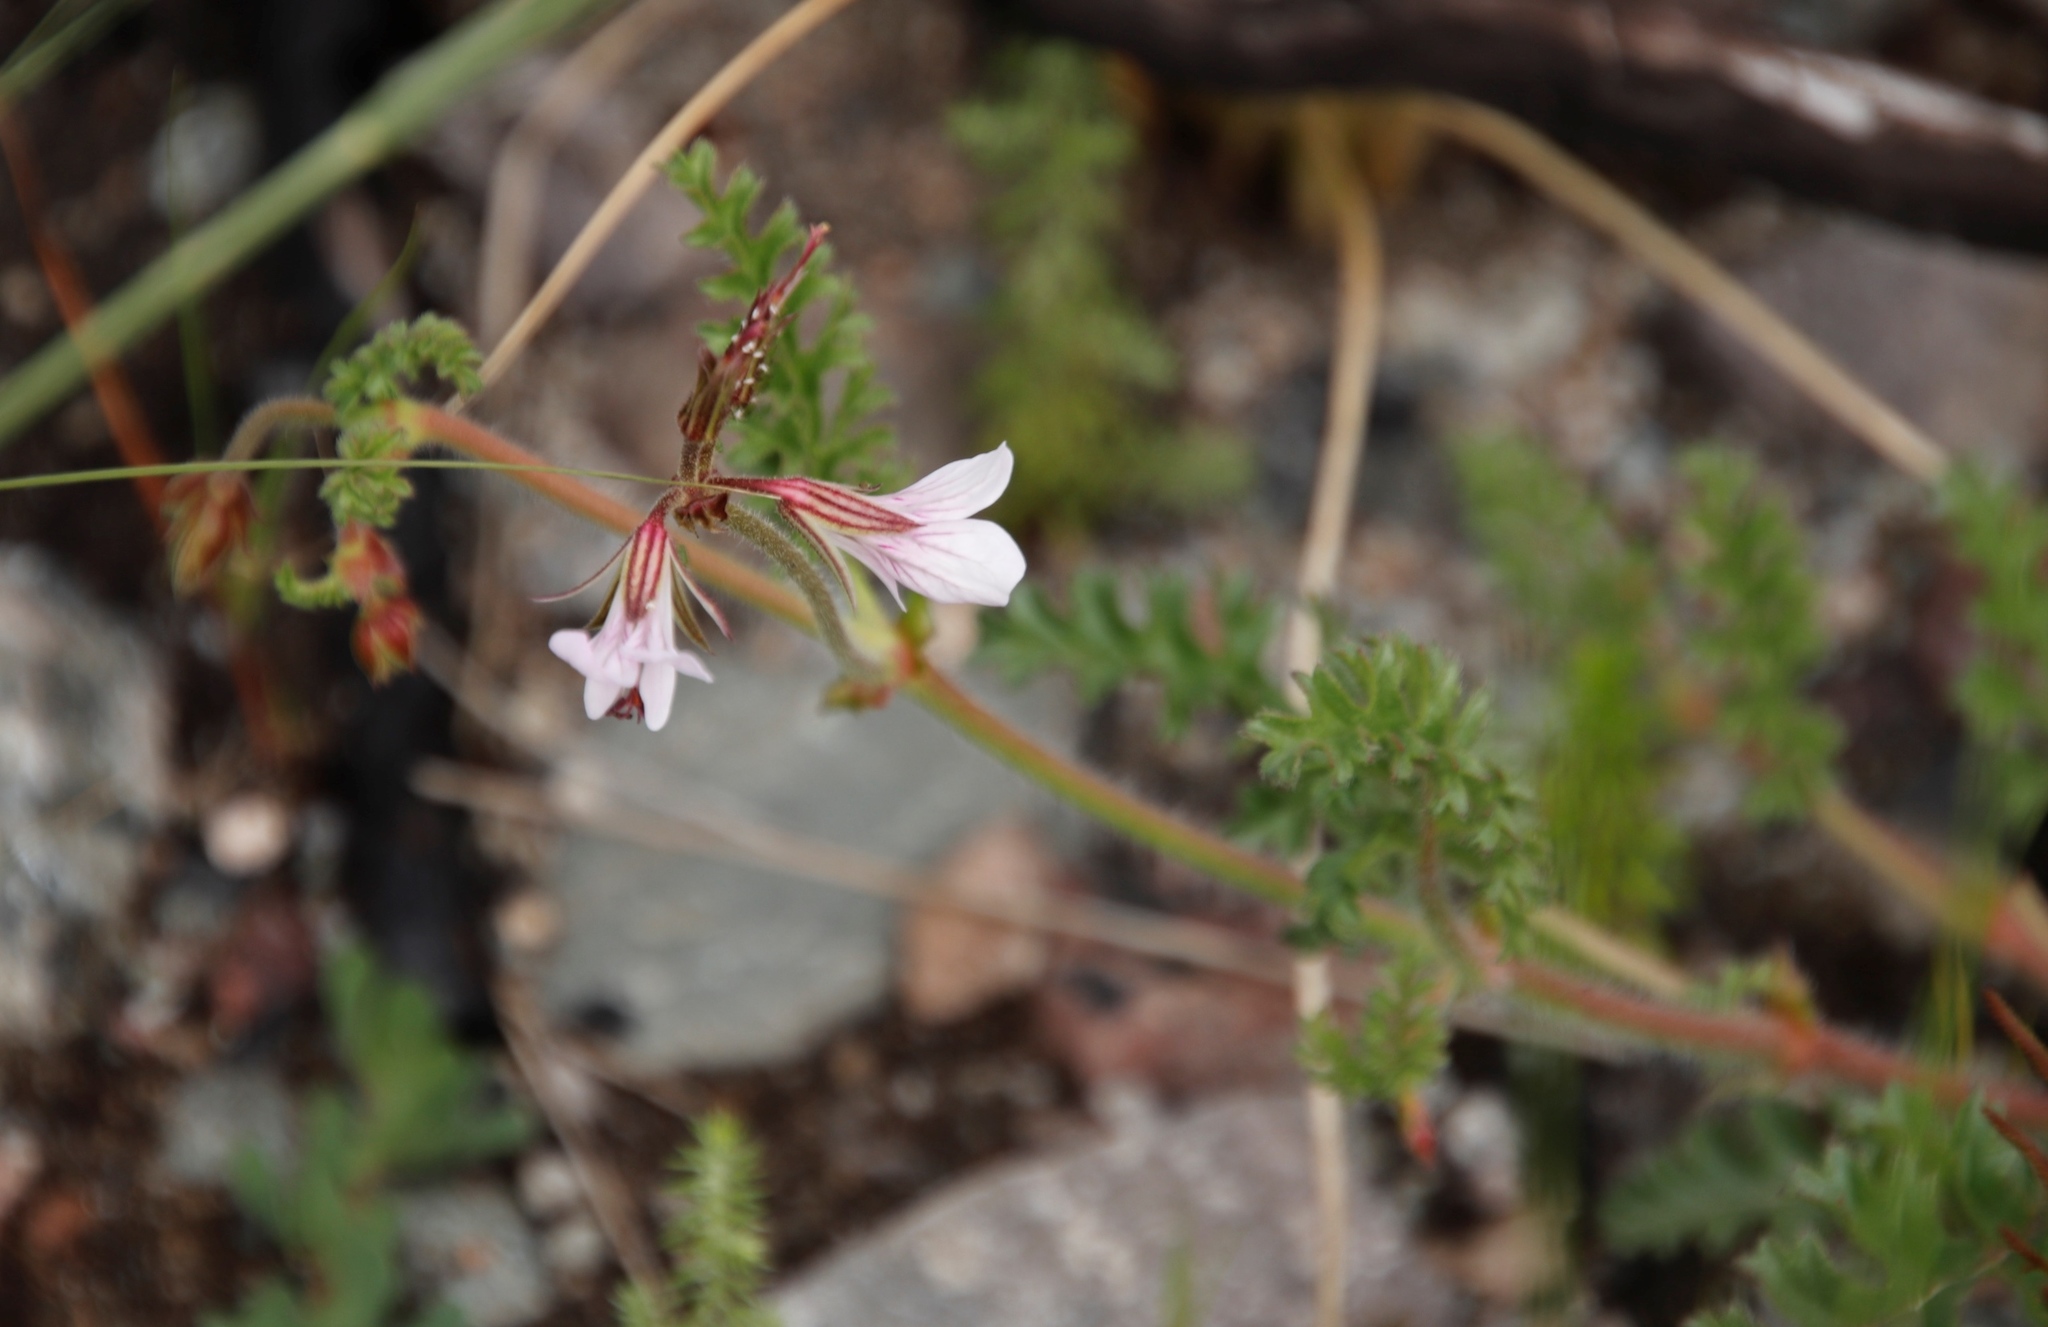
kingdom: Plantae
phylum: Tracheophyta
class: Magnoliopsida
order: Geraniales
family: Geraniaceae
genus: Pelargonium
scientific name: Pelargonium myrrhifolium
